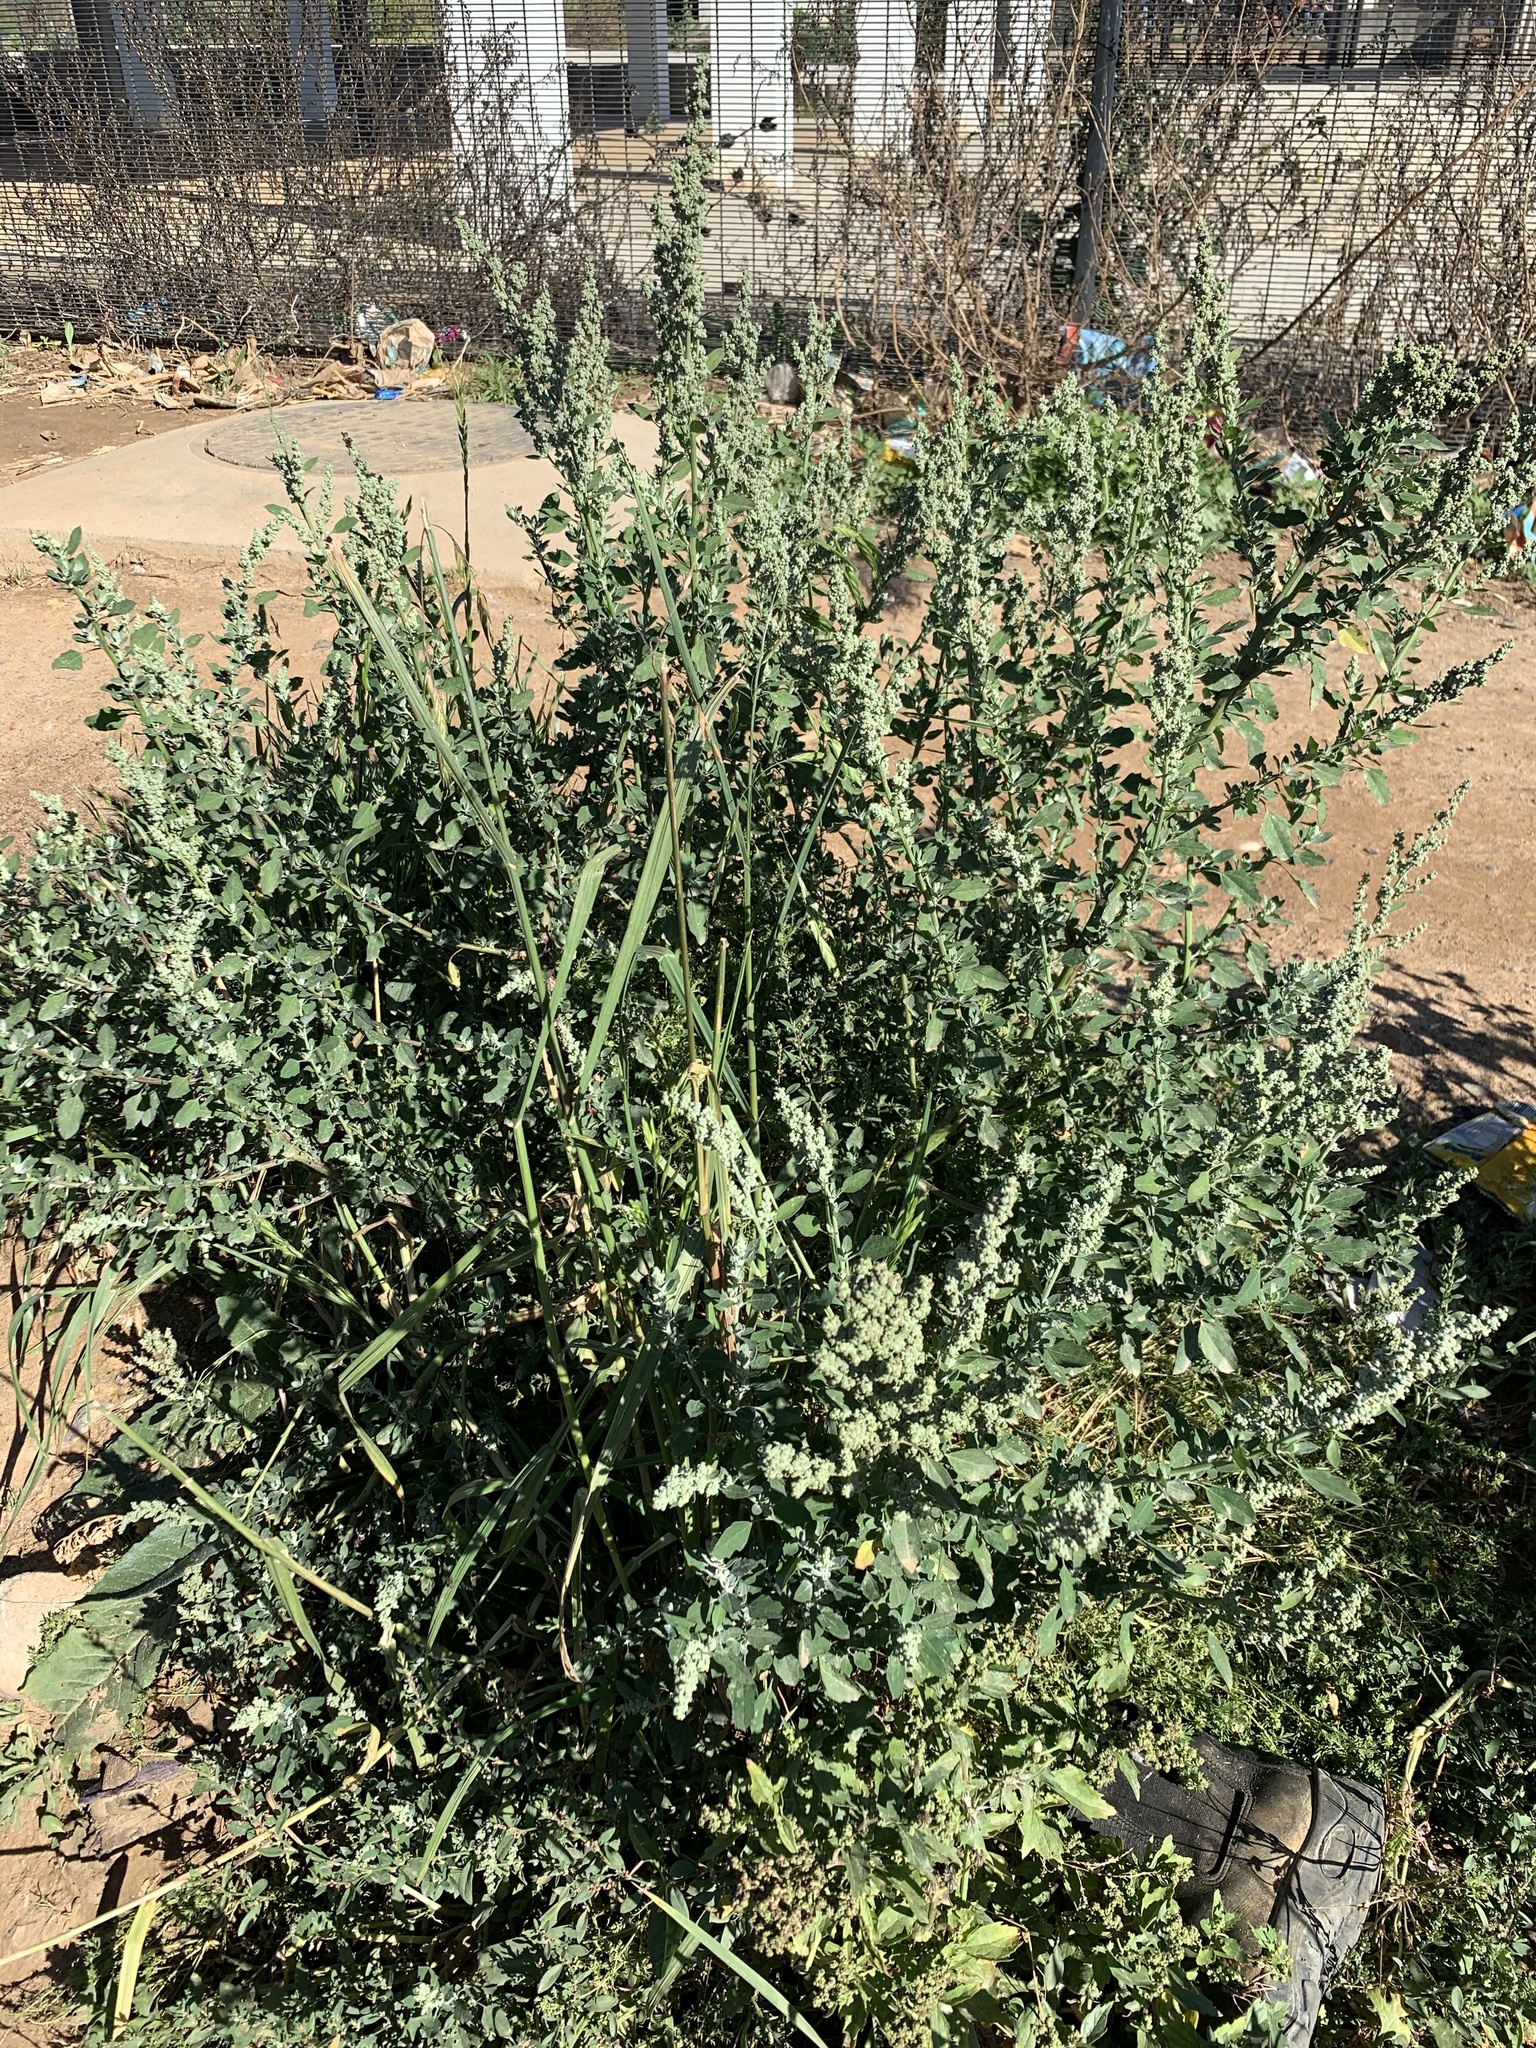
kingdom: Plantae
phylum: Tracheophyta
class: Magnoliopsida
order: Caryophyllales
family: Amaranthaceae
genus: Chenopodium
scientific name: Chenopodium album
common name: Fat-hen
